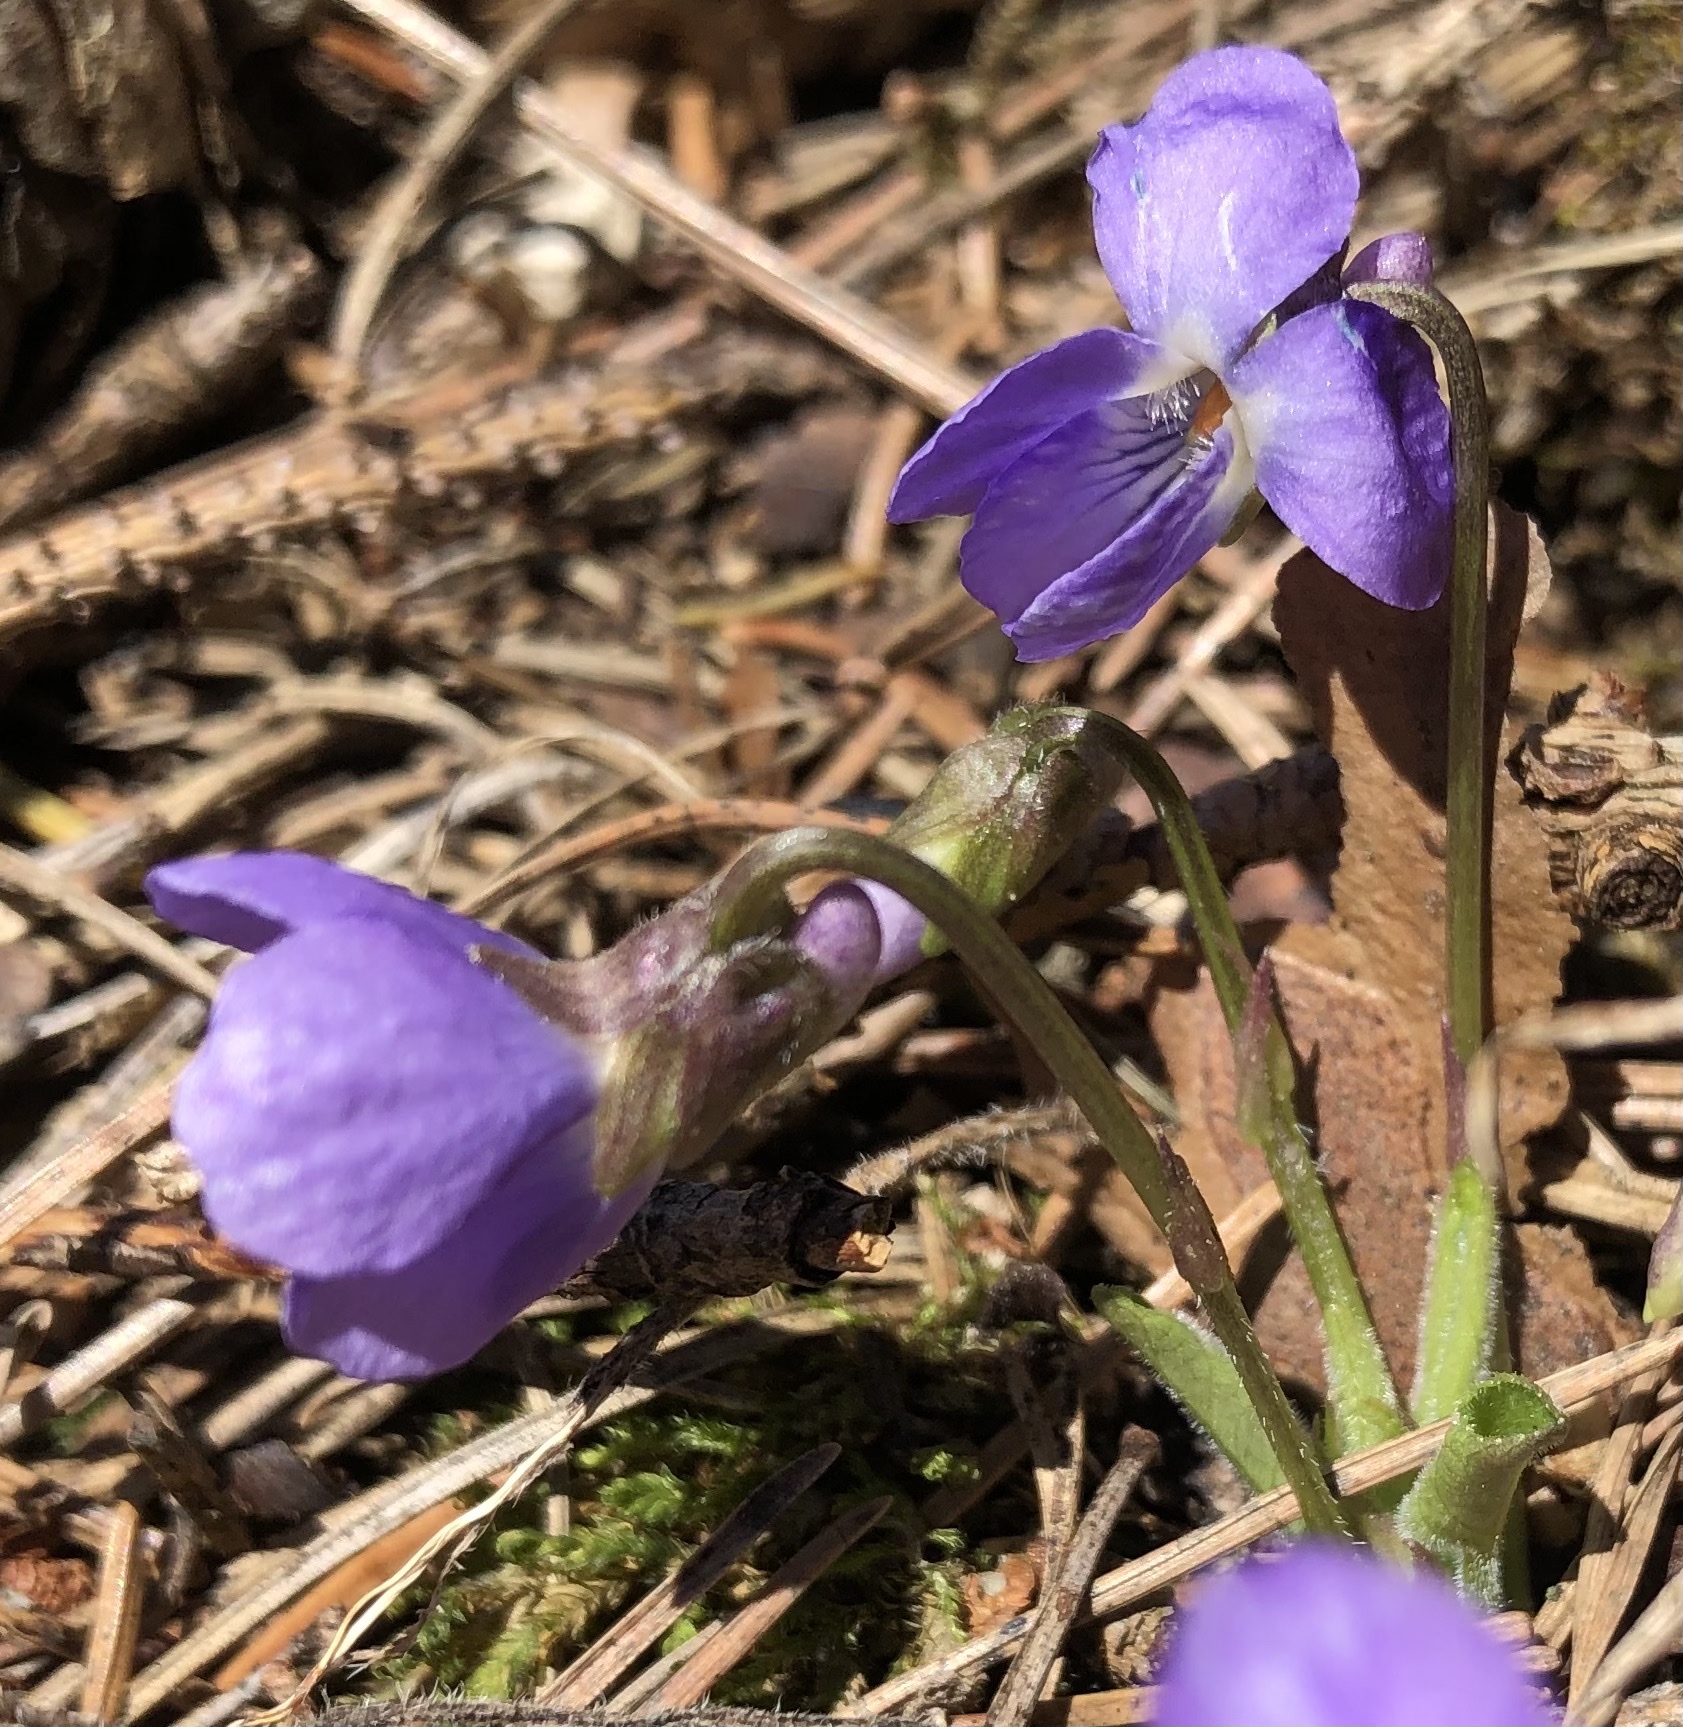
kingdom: Plantae
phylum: Tracheophyta
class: Magnoliopsida
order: Malpighiales
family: Violaceae
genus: Viola
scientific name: Viola collina
